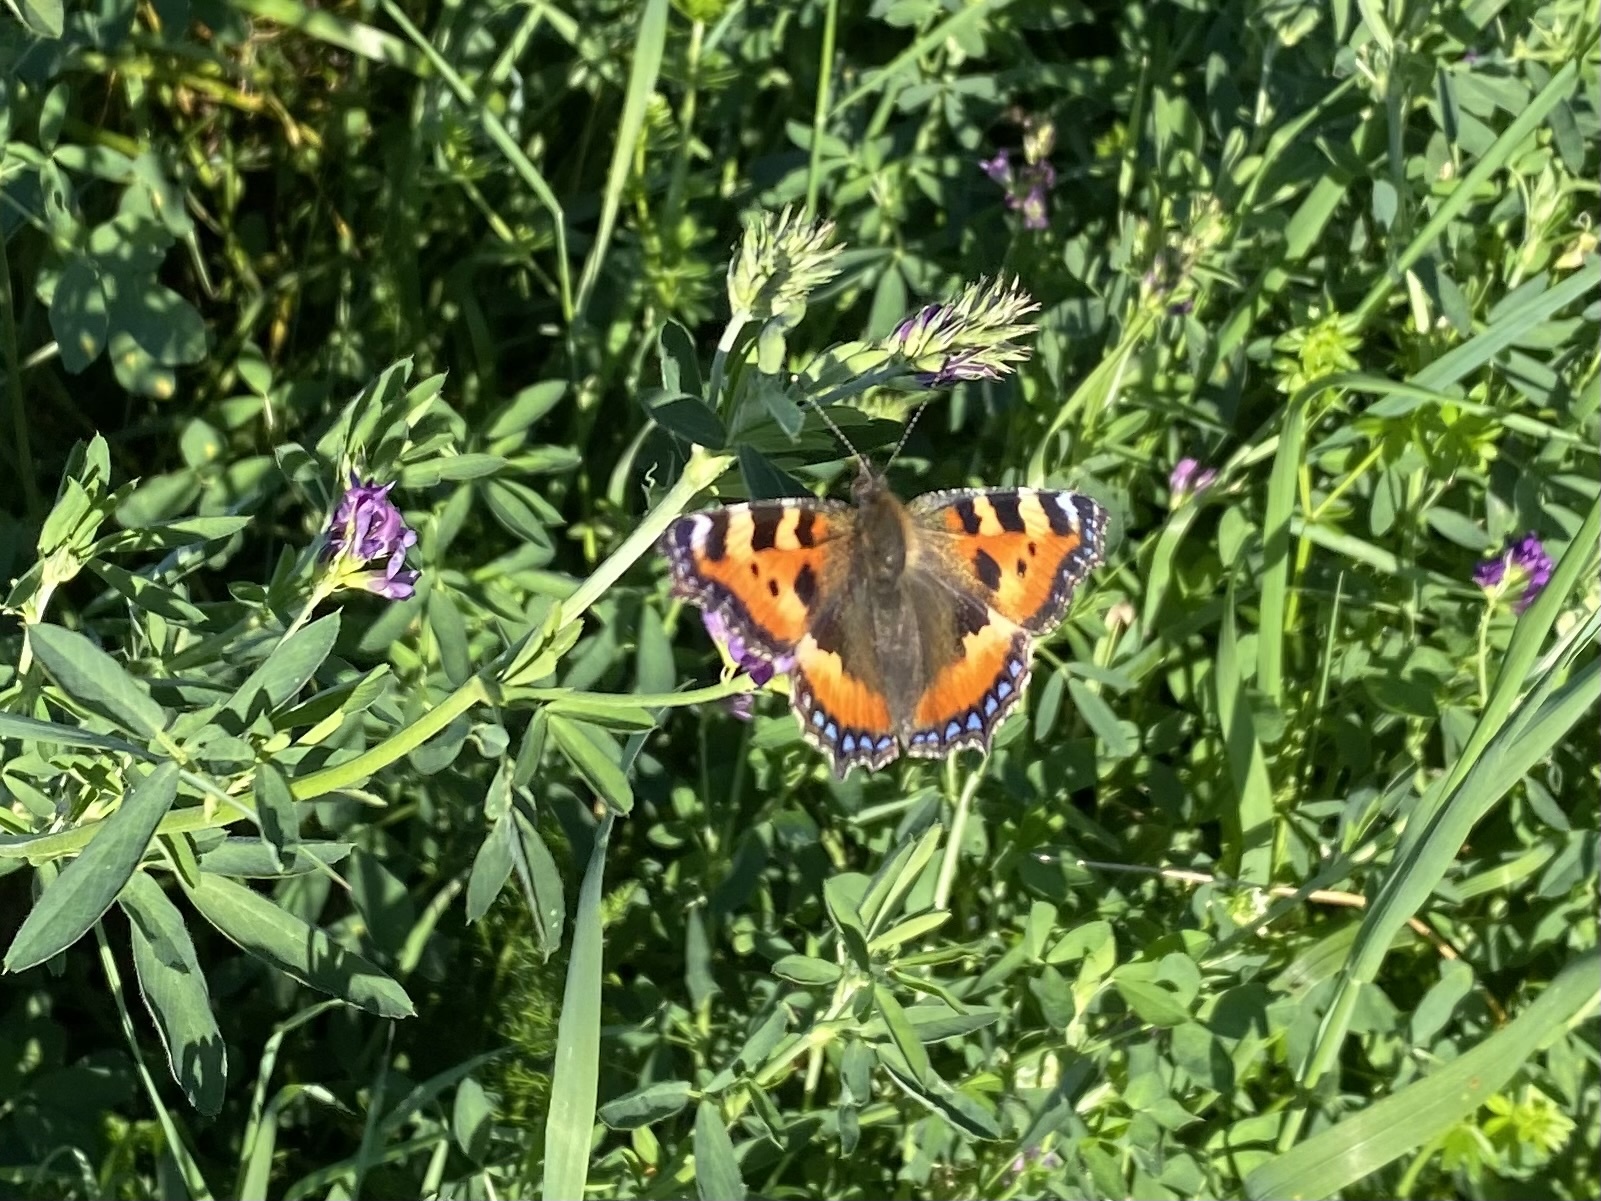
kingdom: Animalia
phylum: Arthropoda
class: Insecta
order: Lepidoptera
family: Nymphalidae
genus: Aglais
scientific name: Aglais urticae
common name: Small tortoiseshell
